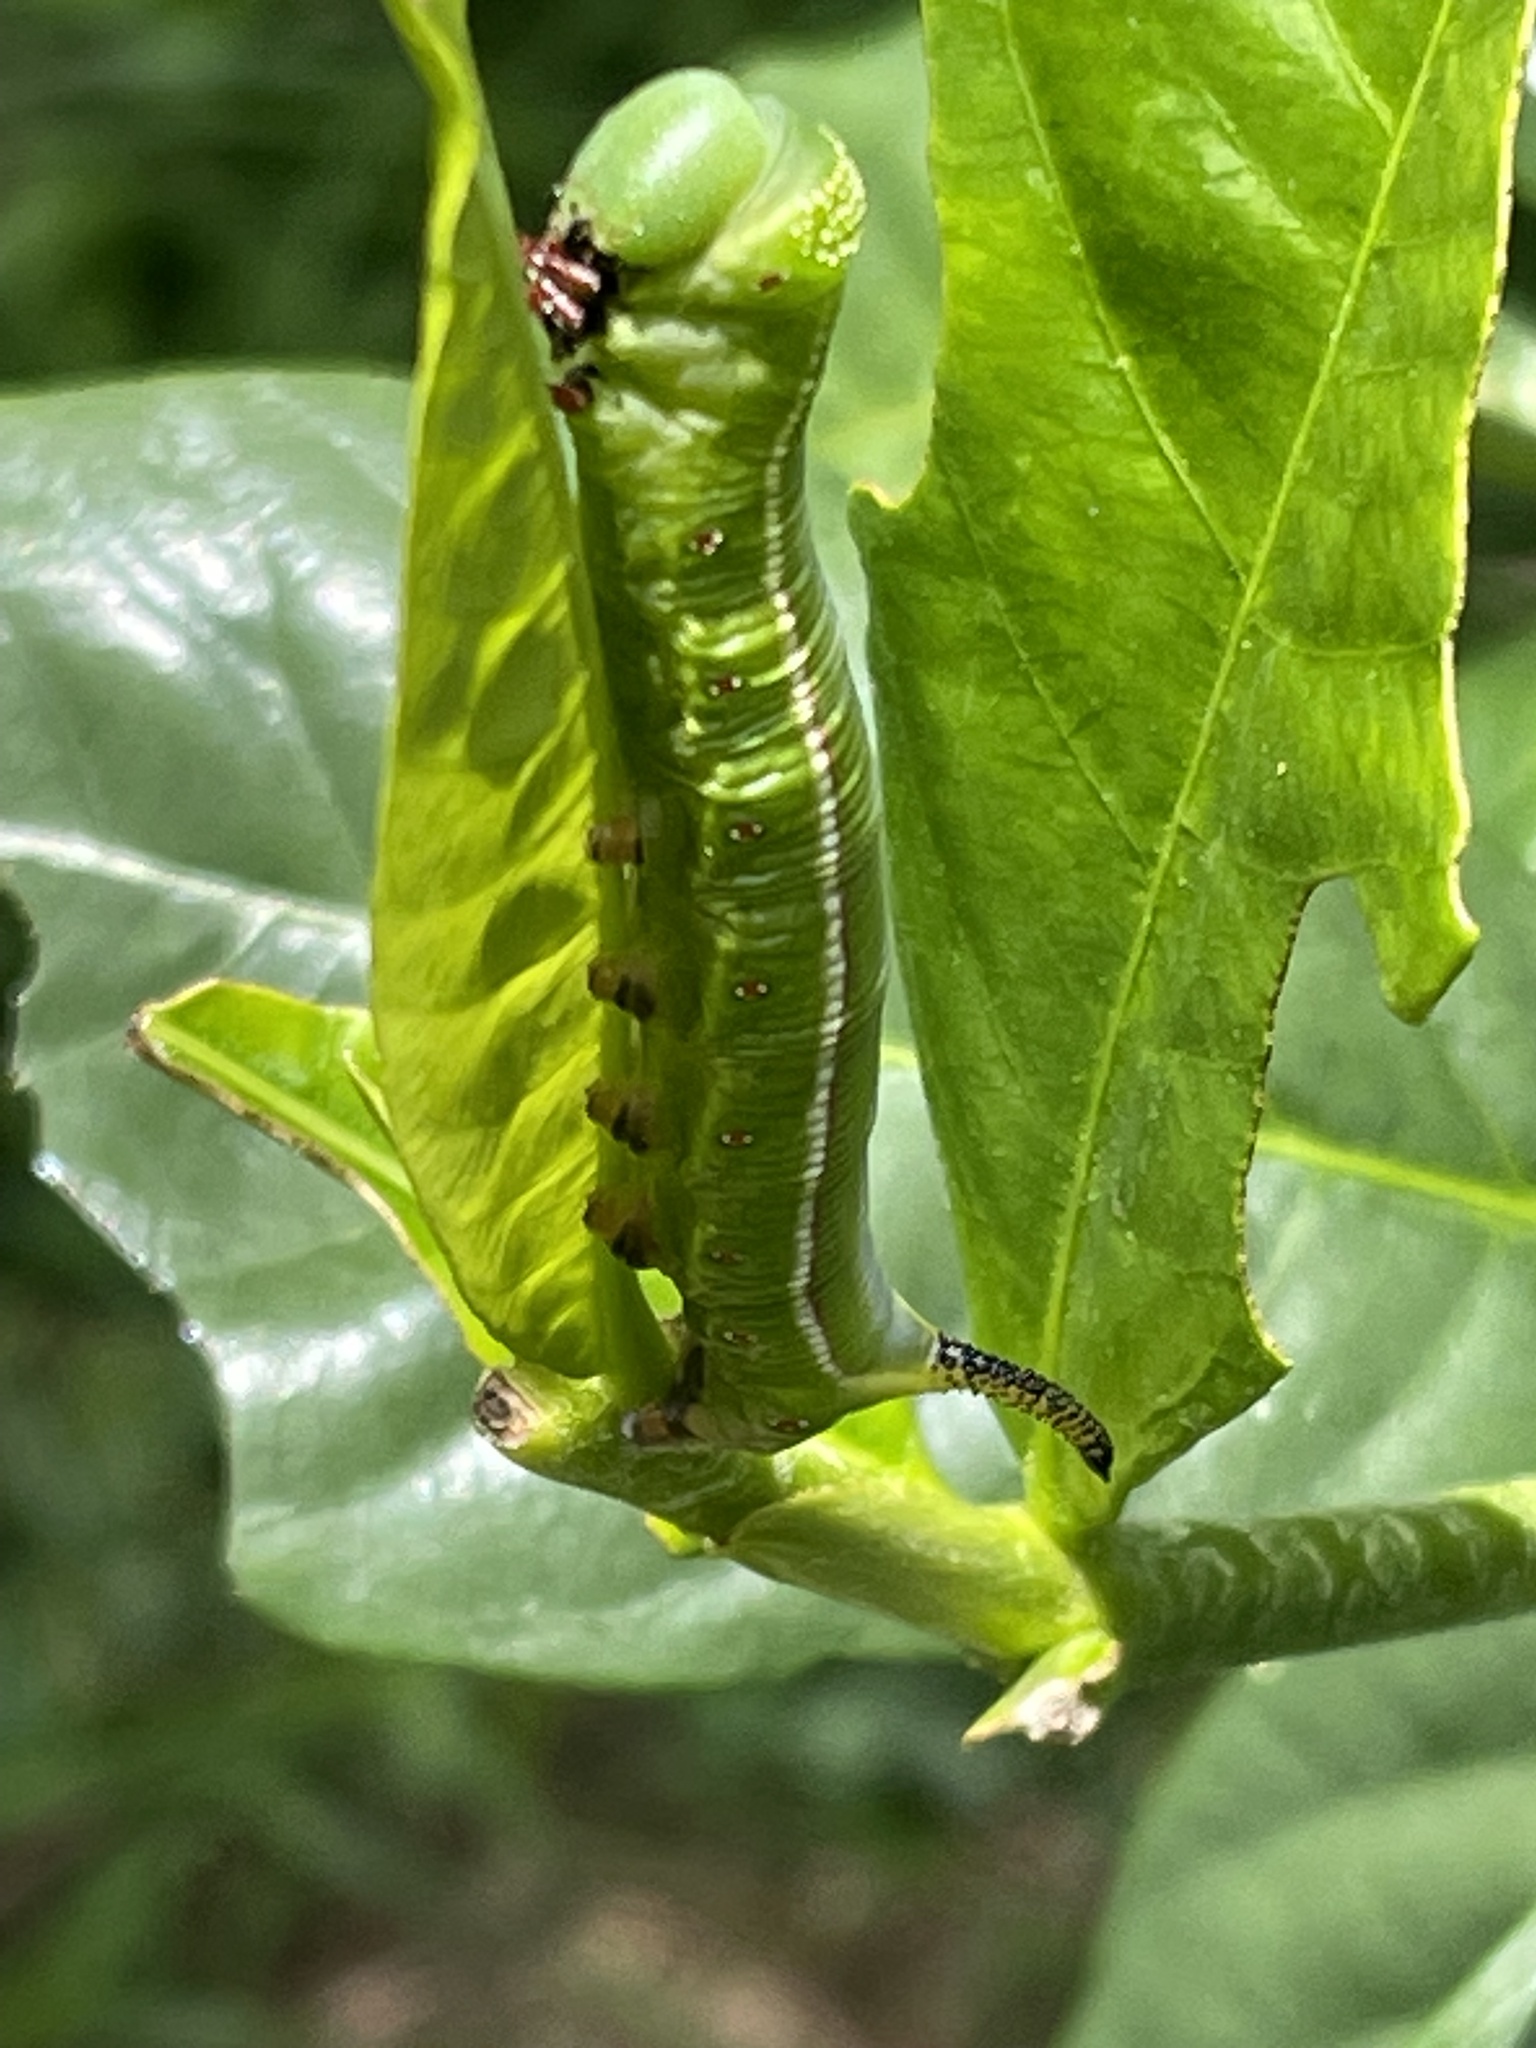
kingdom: Animalia
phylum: Arthropoda
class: Insecta
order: Lepidoptera
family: Sphingidae
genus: Cephonodes
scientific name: Cephonodes kingii
